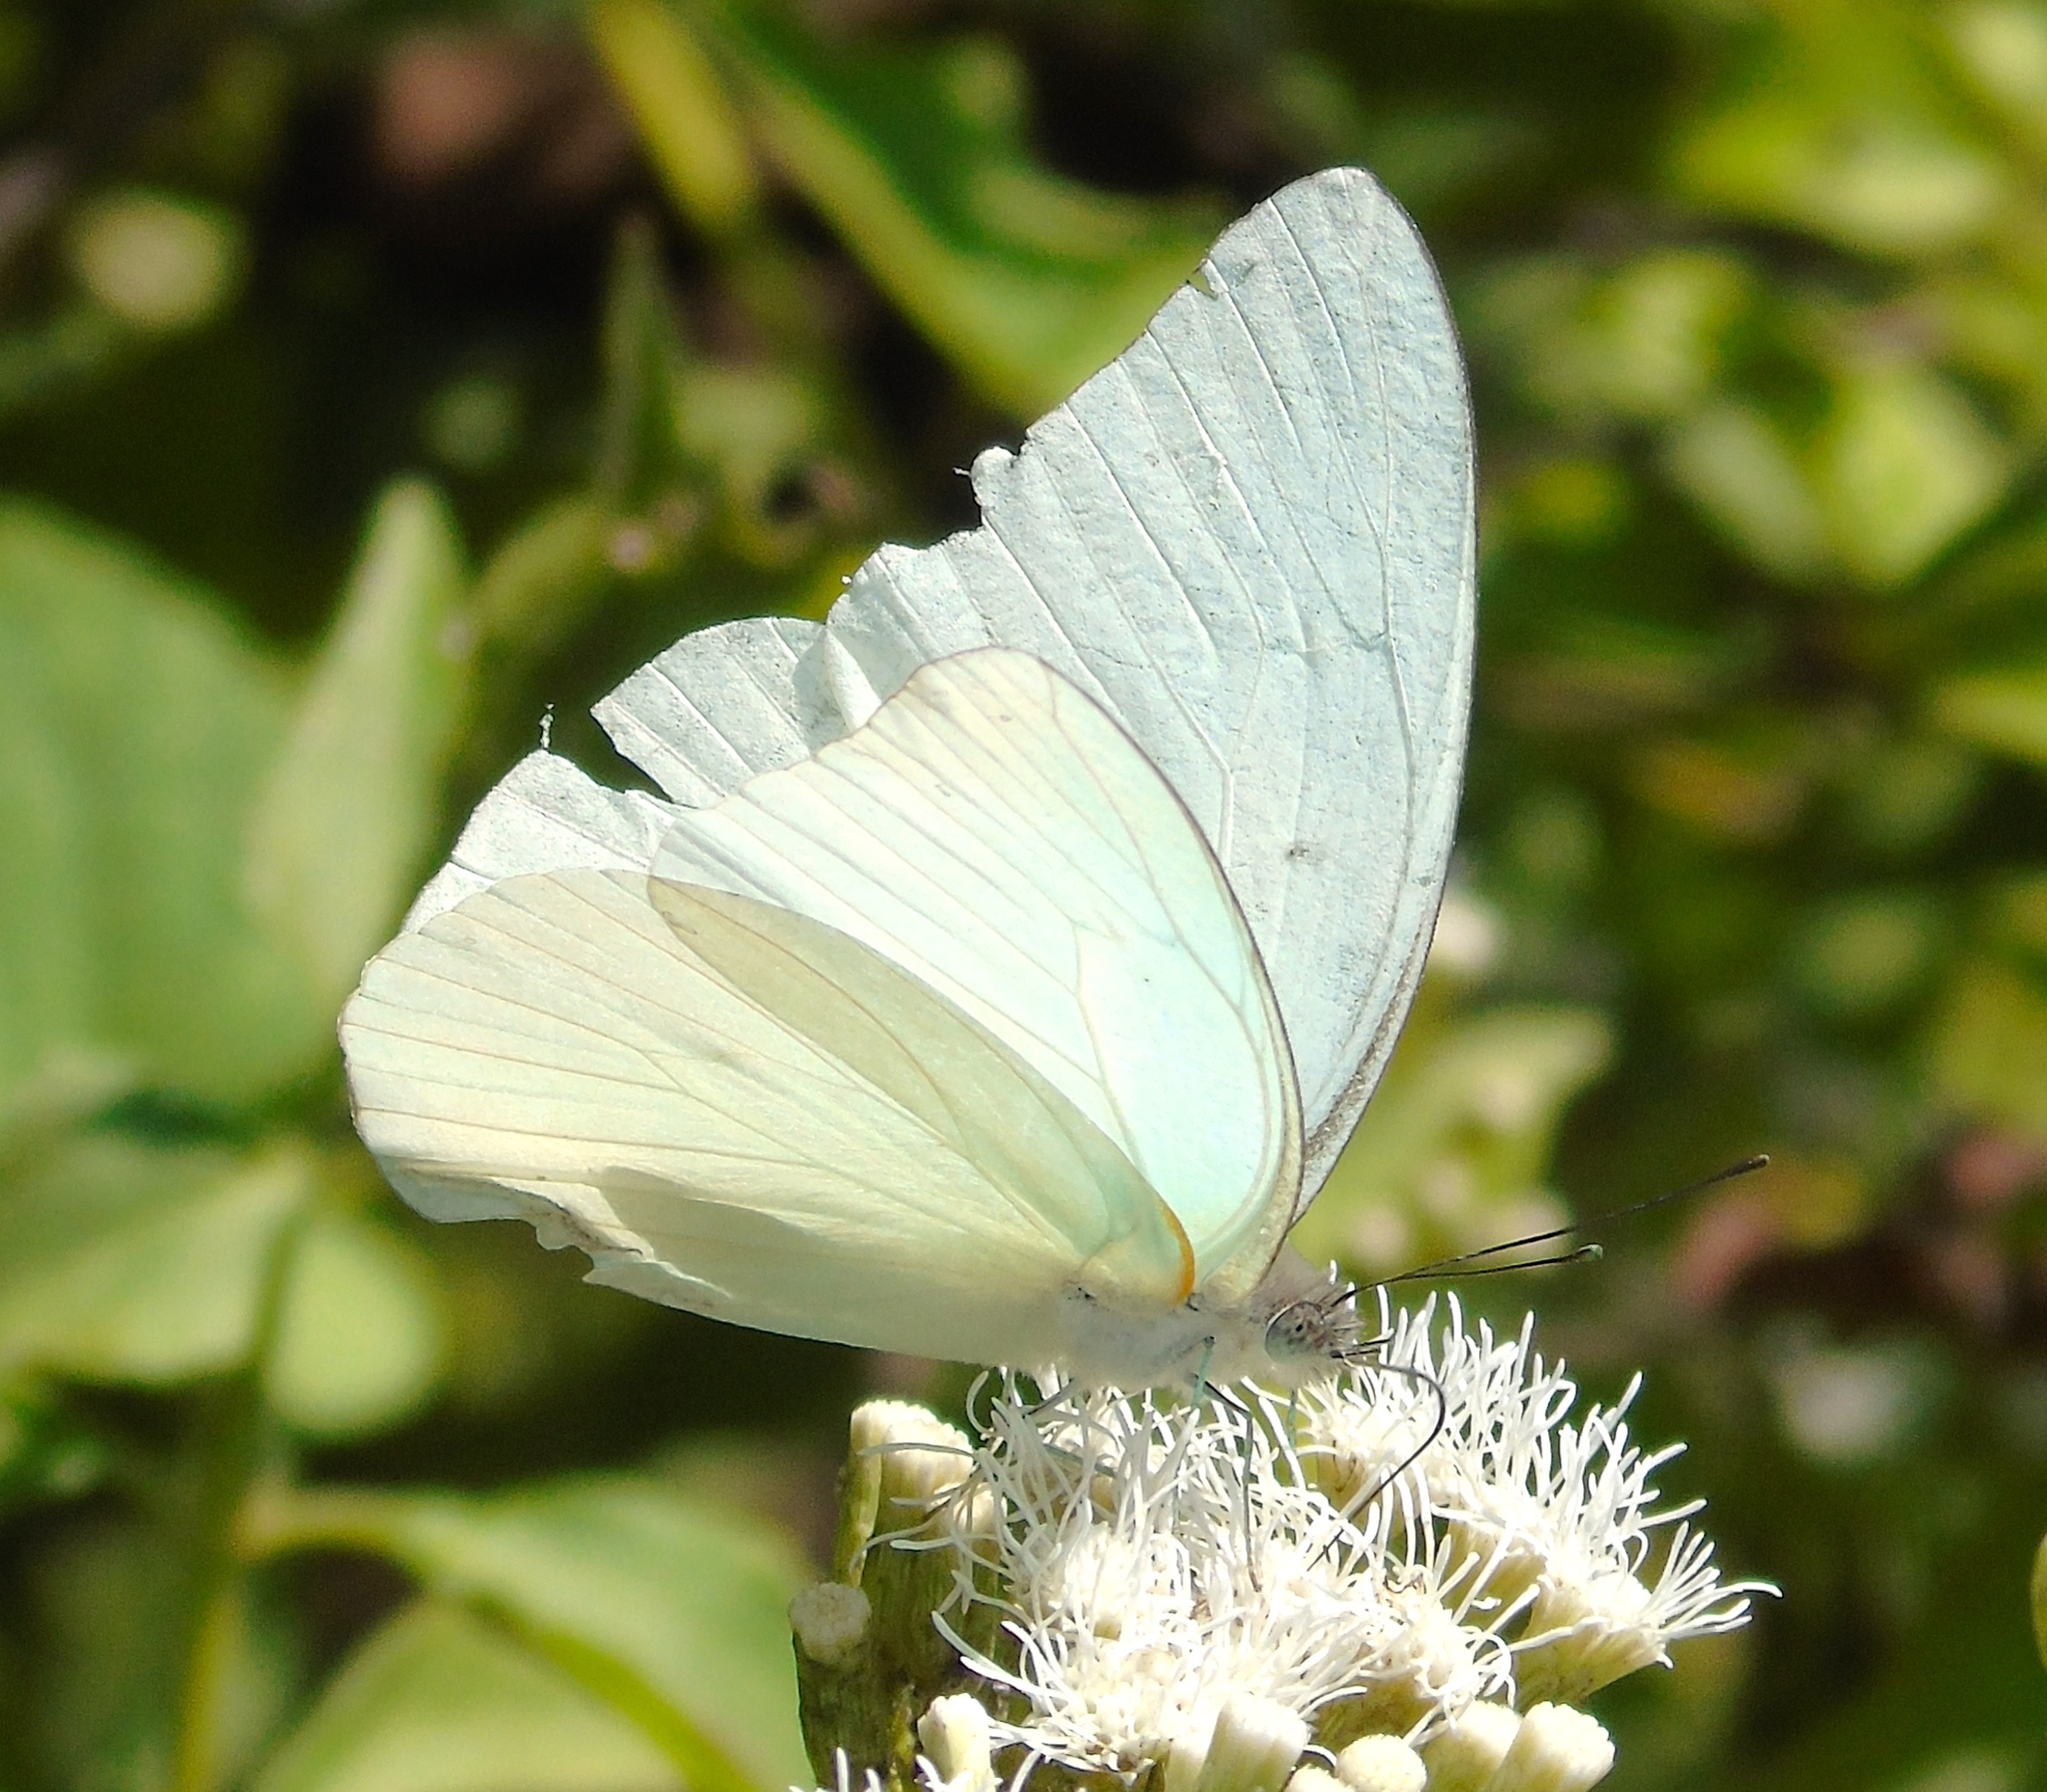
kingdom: Animalia
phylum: Arthropoda
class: Insecta
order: Lepidoptera
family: Pieridae
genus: Glutophrissa
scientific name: Glutophrissa drusilla
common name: Florida white
